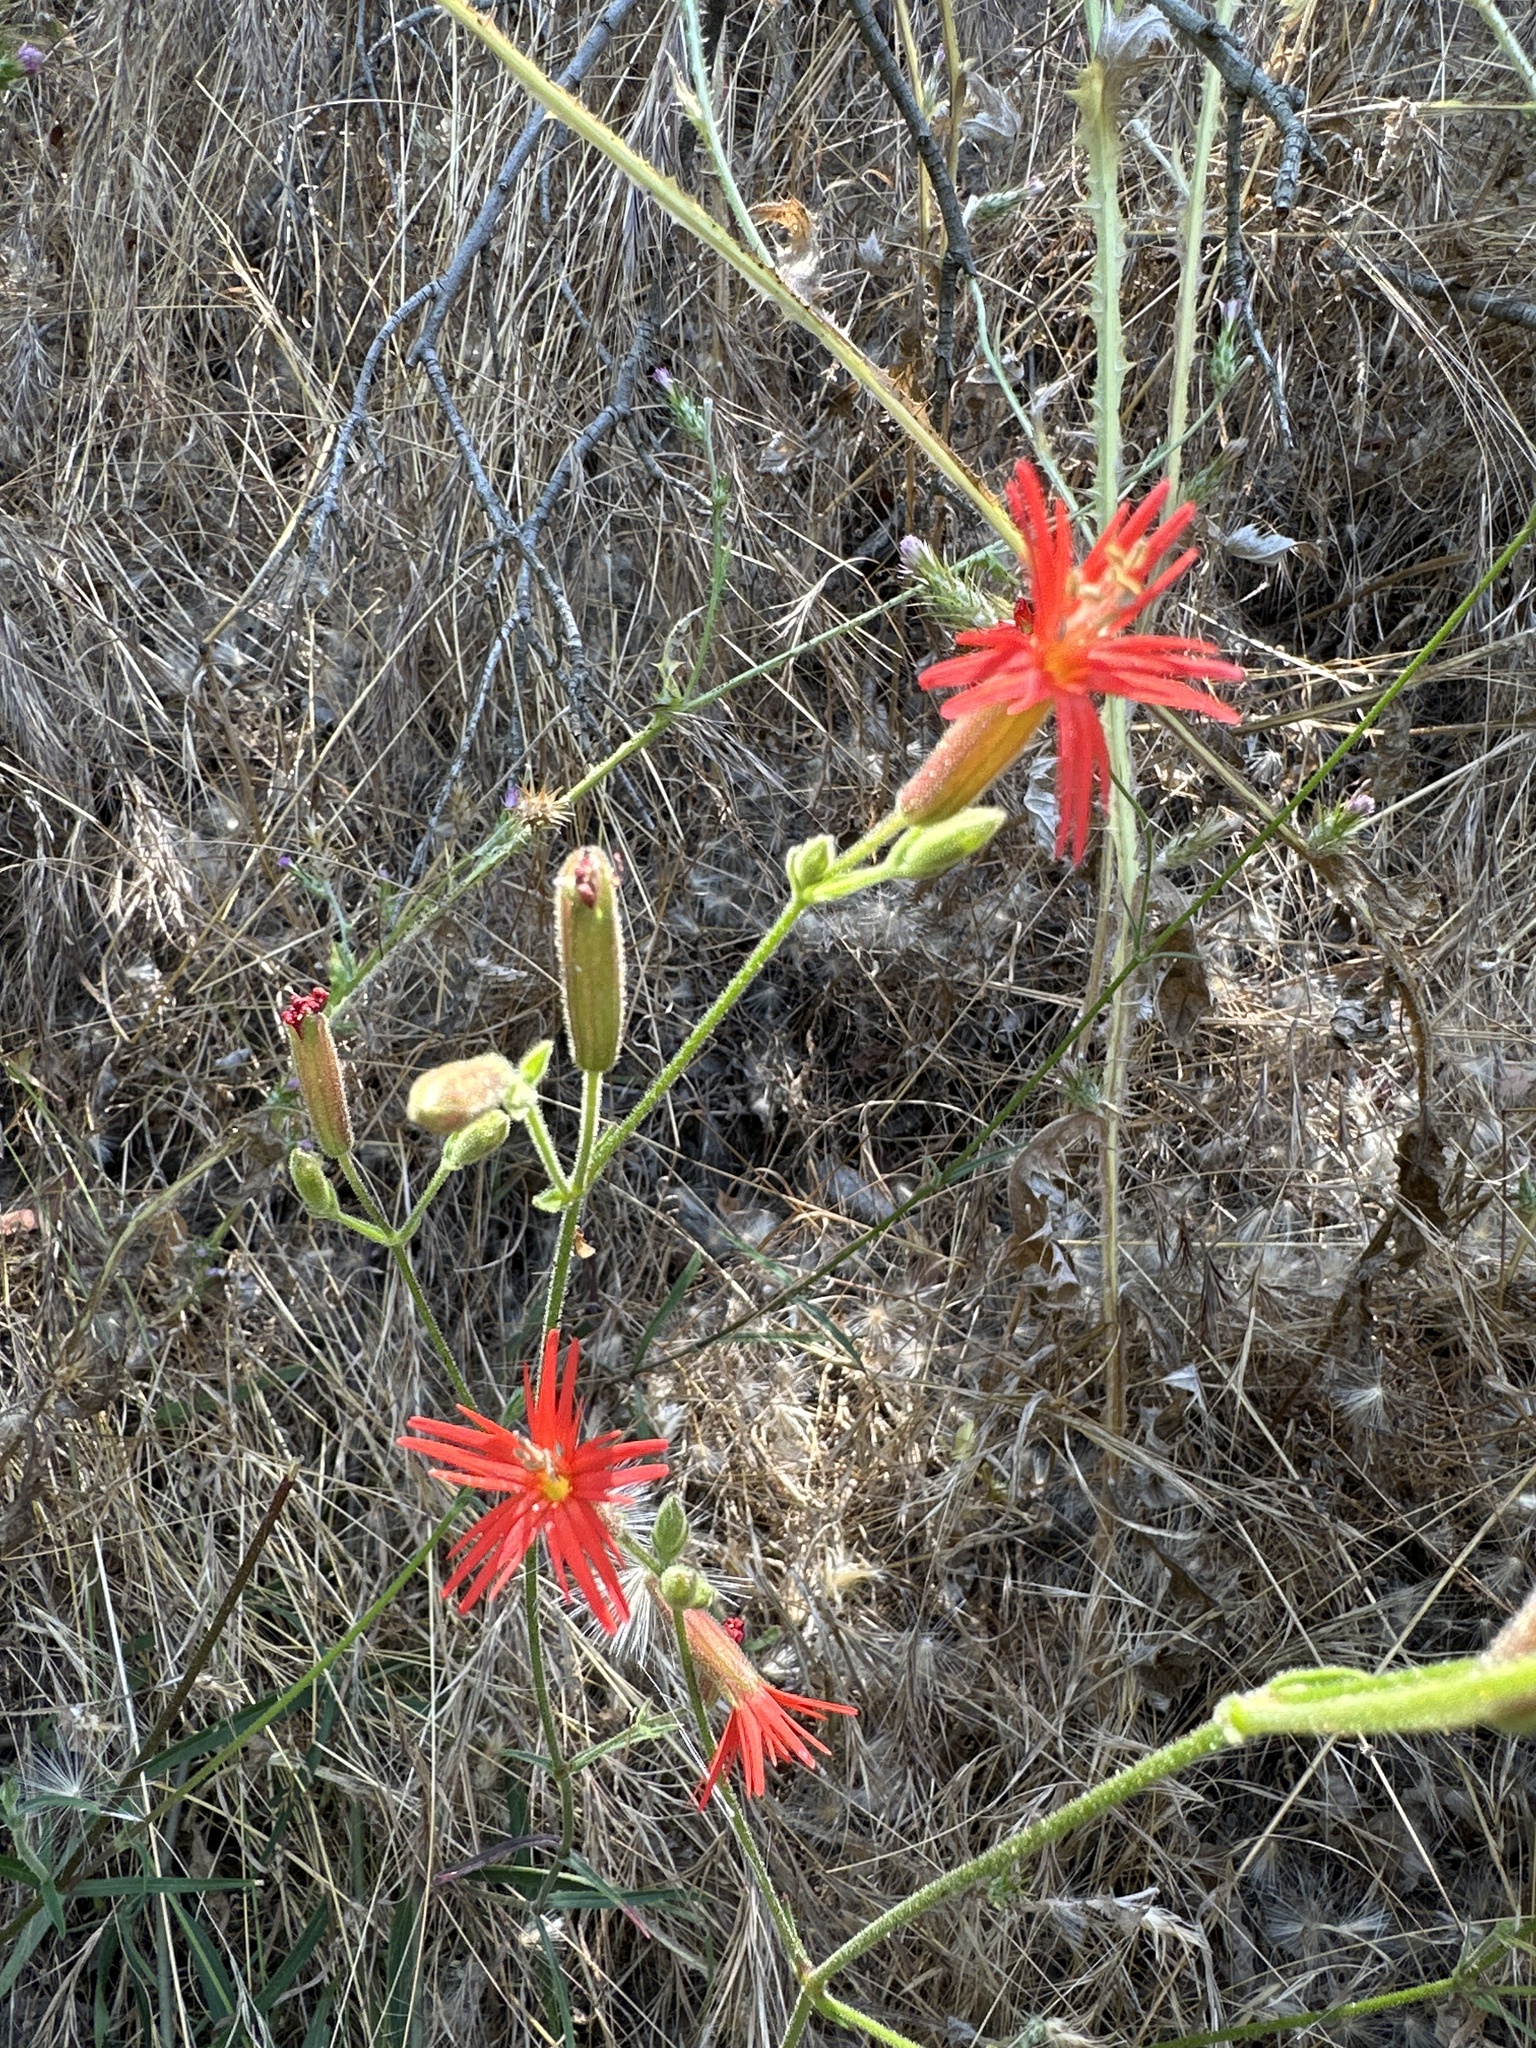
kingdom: Plantae
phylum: Tracheophyta
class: Magnoliopsida
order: Caryophyllales
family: Caryophyllaceae
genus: Silene
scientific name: Silene laciniata
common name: Indian-pink
